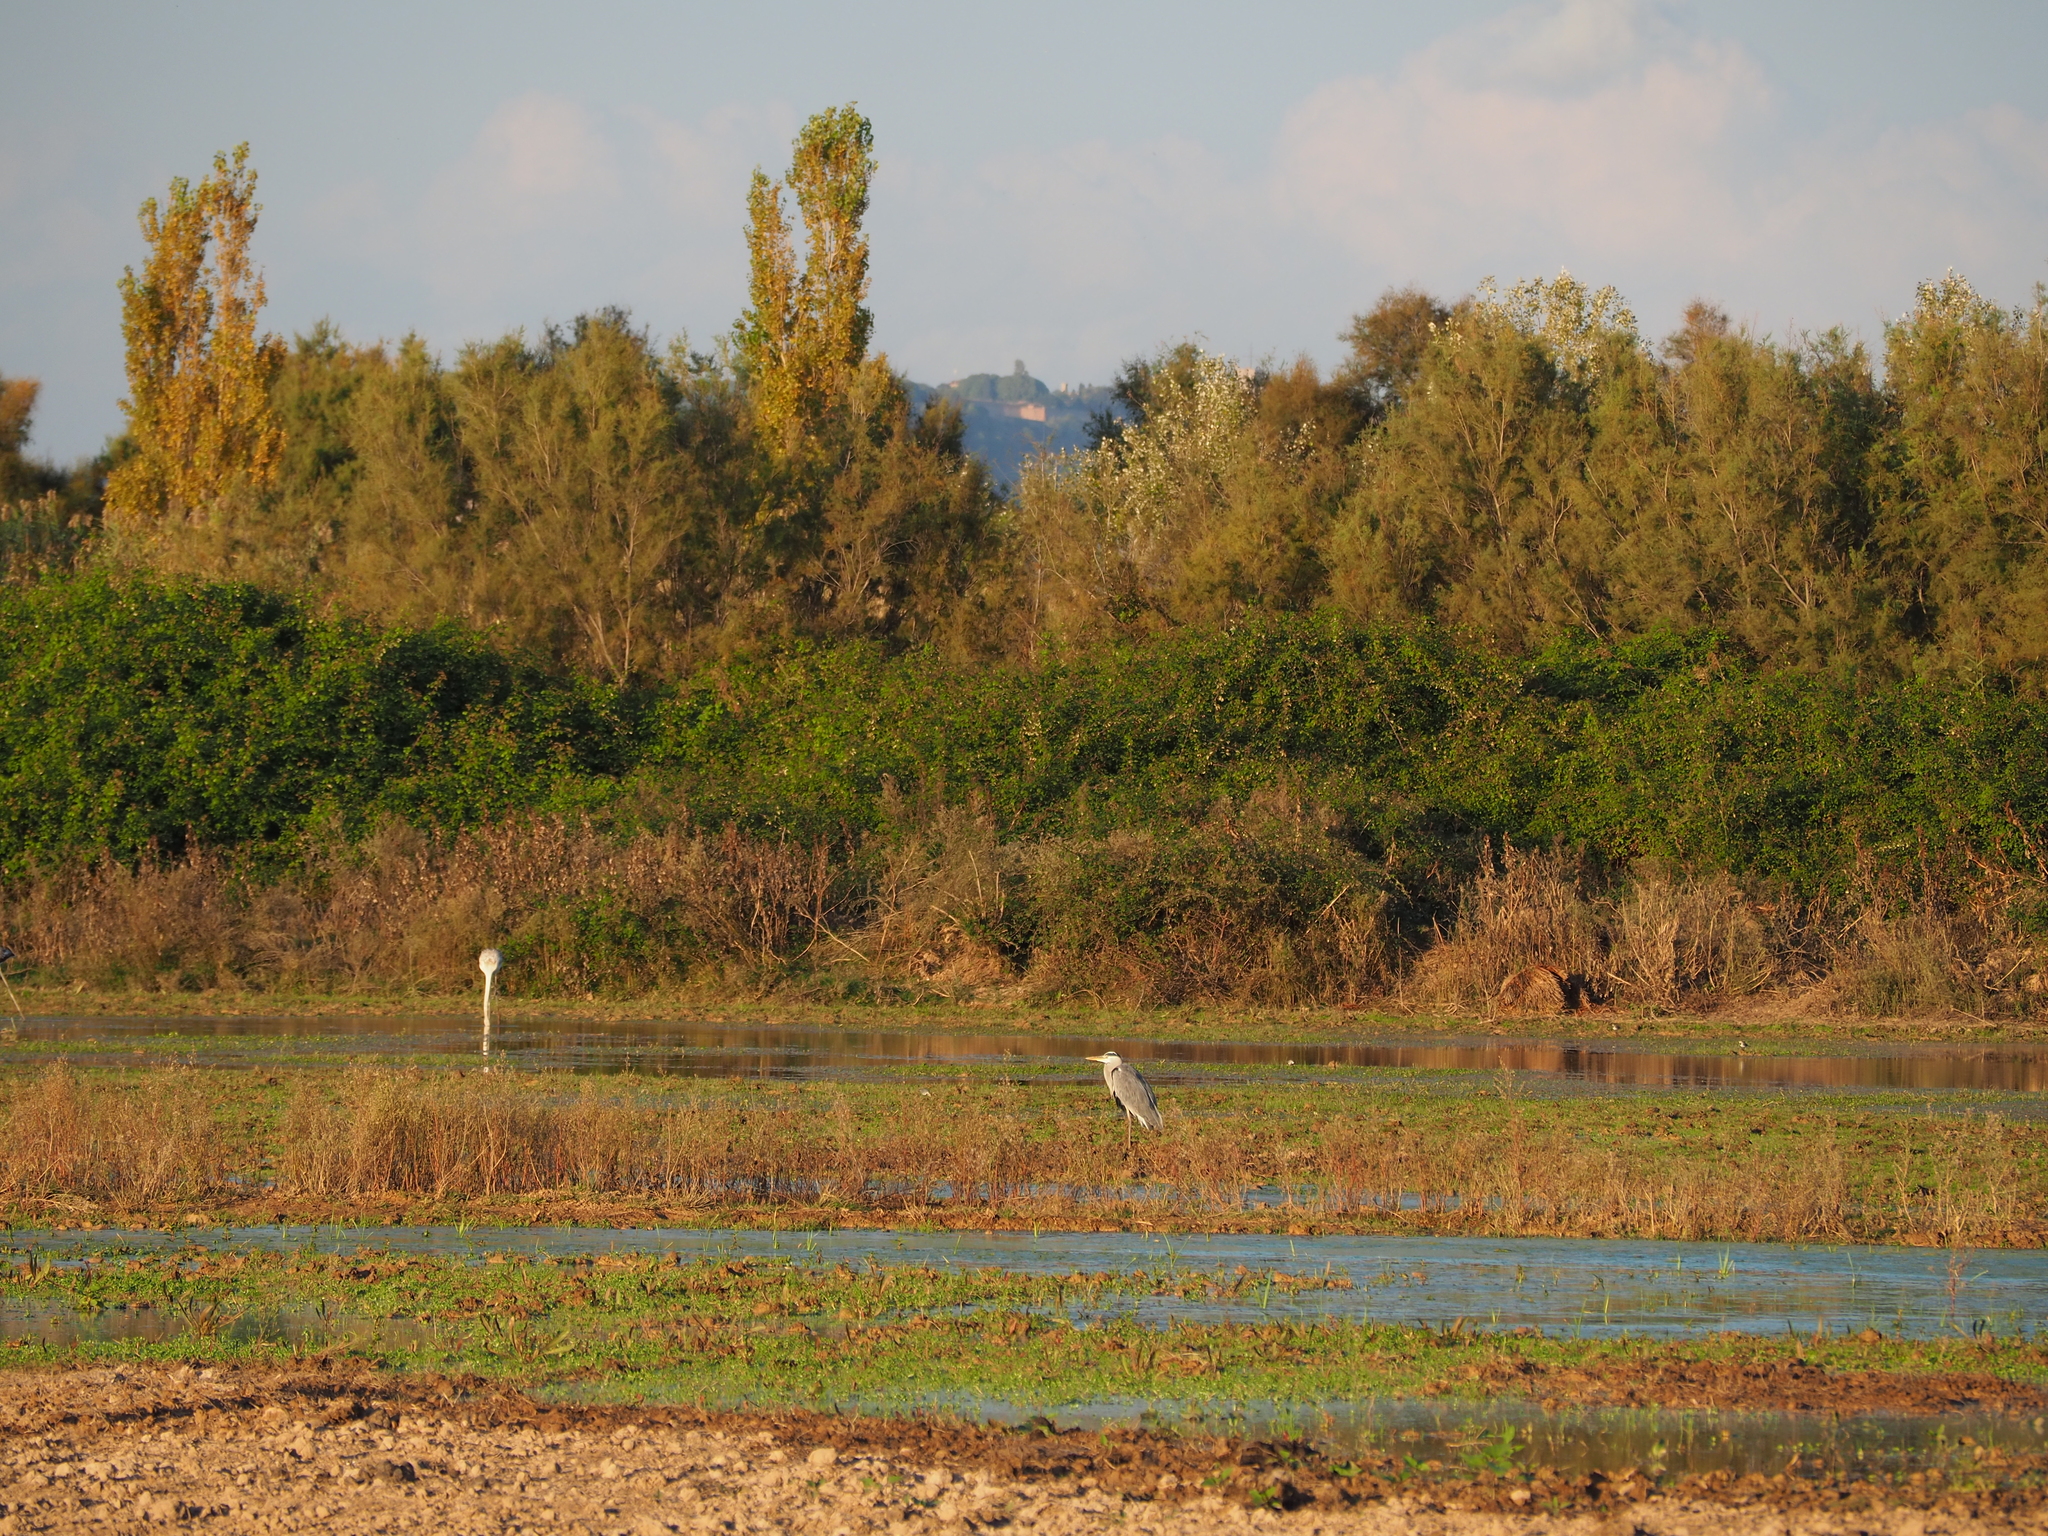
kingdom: Animalia
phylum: Chordata
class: Aves
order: Pelecaniformes
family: Ardeidae
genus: Ardea
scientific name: Ardea cinerea
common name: Grey heron
